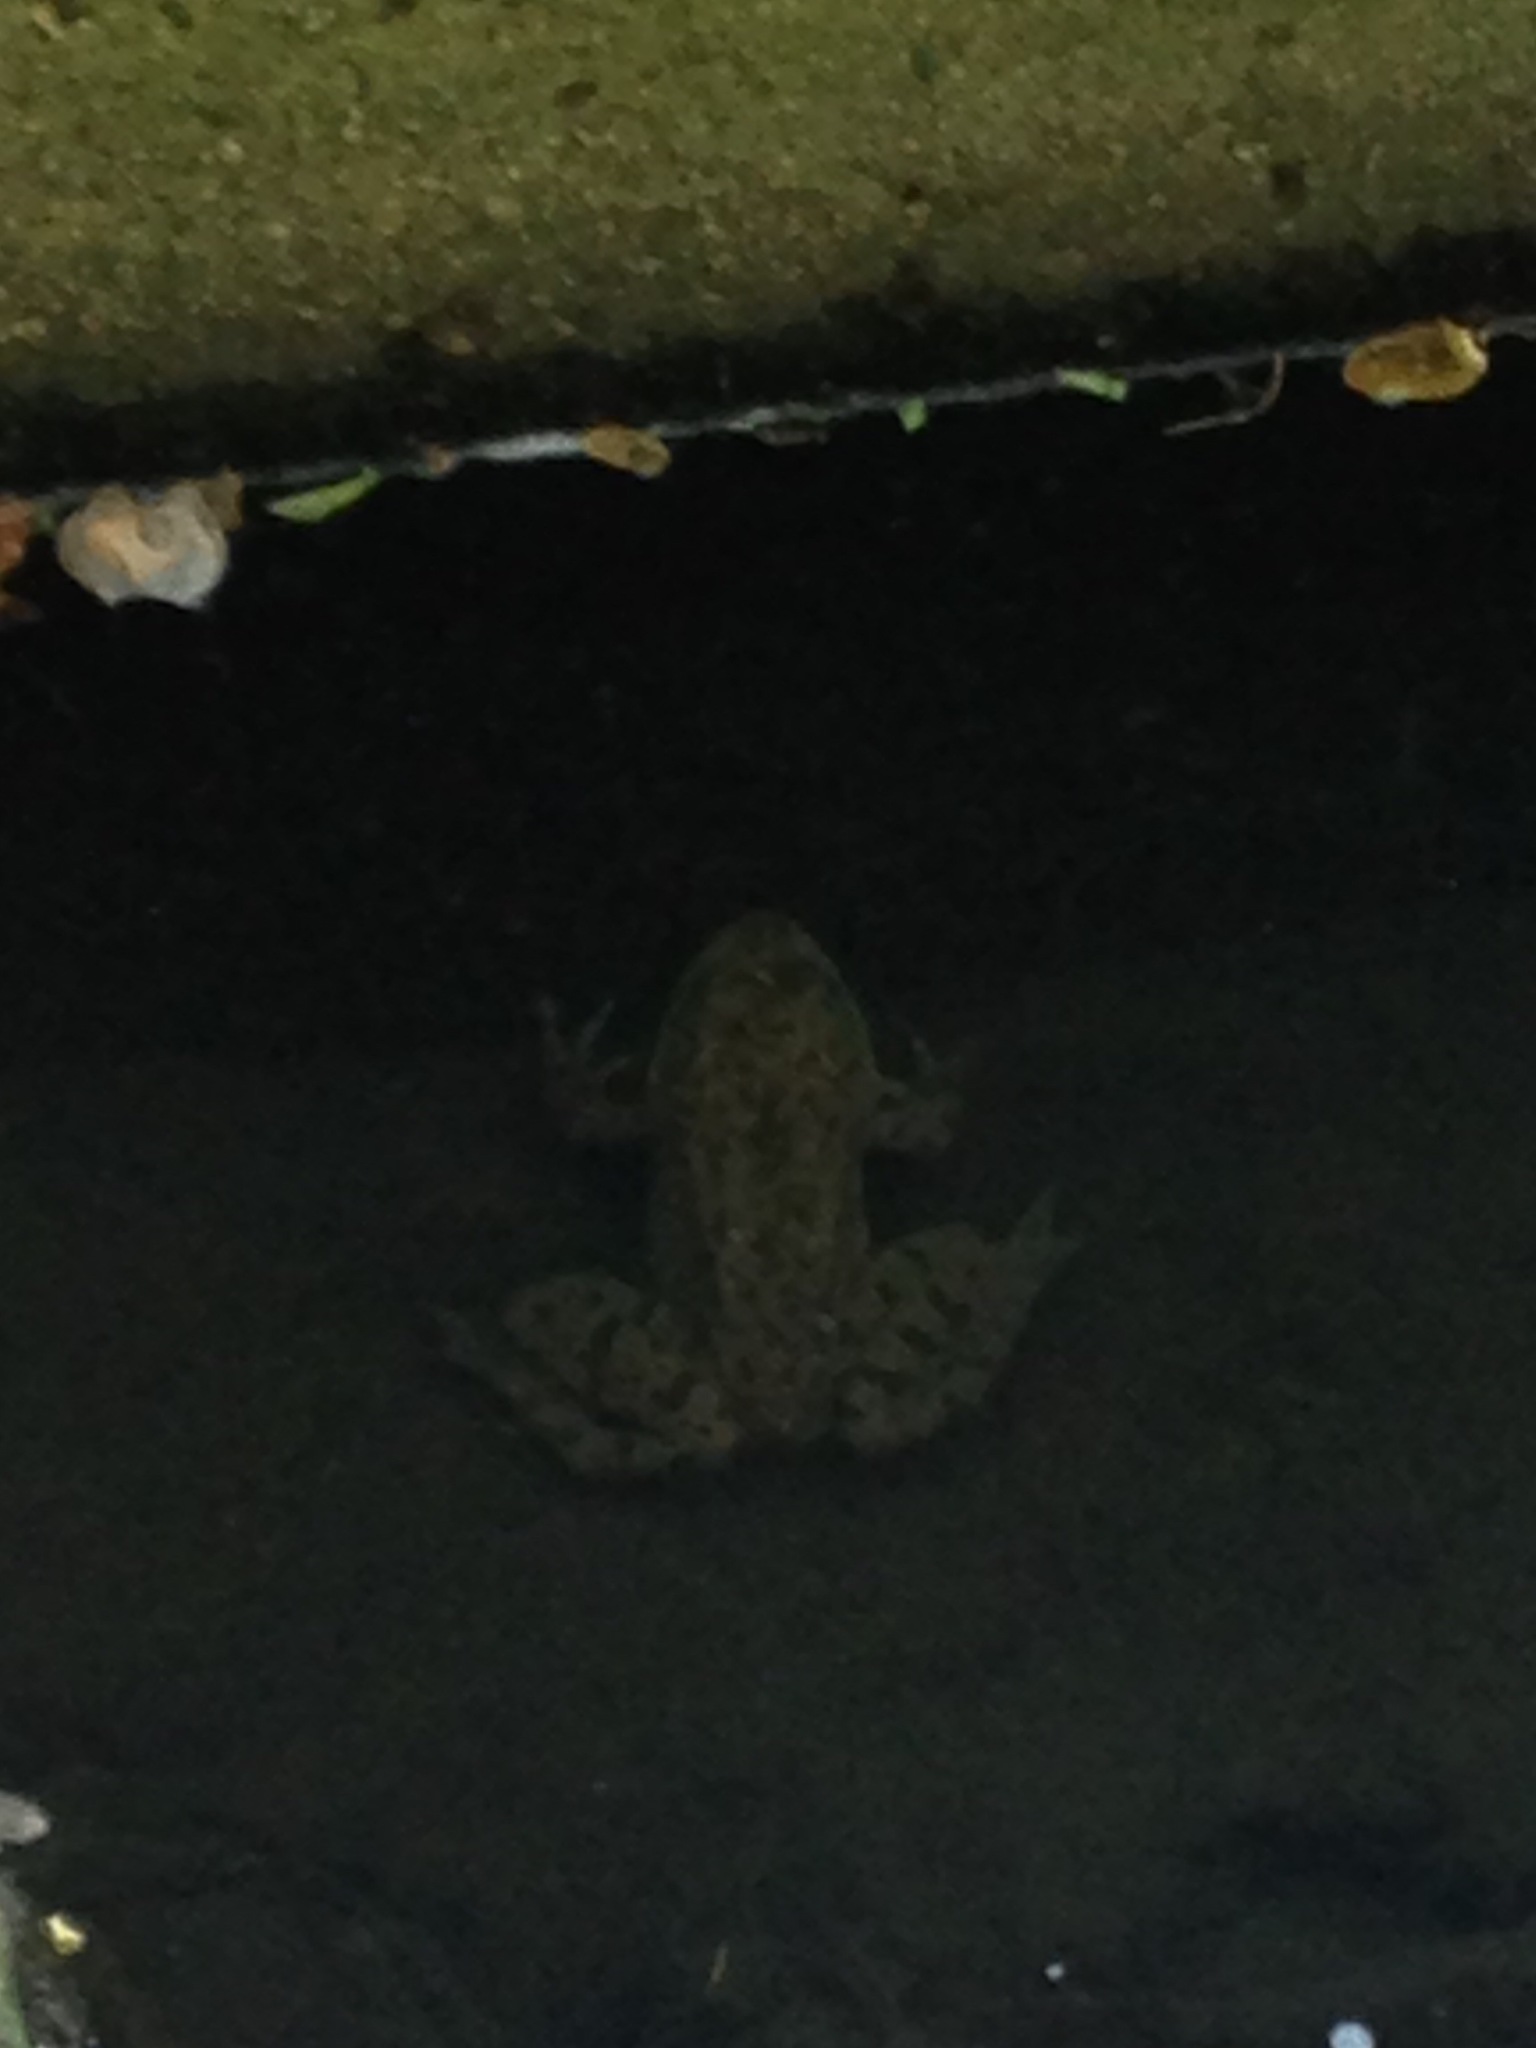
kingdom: Animalia
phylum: Chordata
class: Amphibia
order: Anura
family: Ranidae
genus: Lithobates
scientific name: Lithobates catesbeianus
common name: American bullfrog
